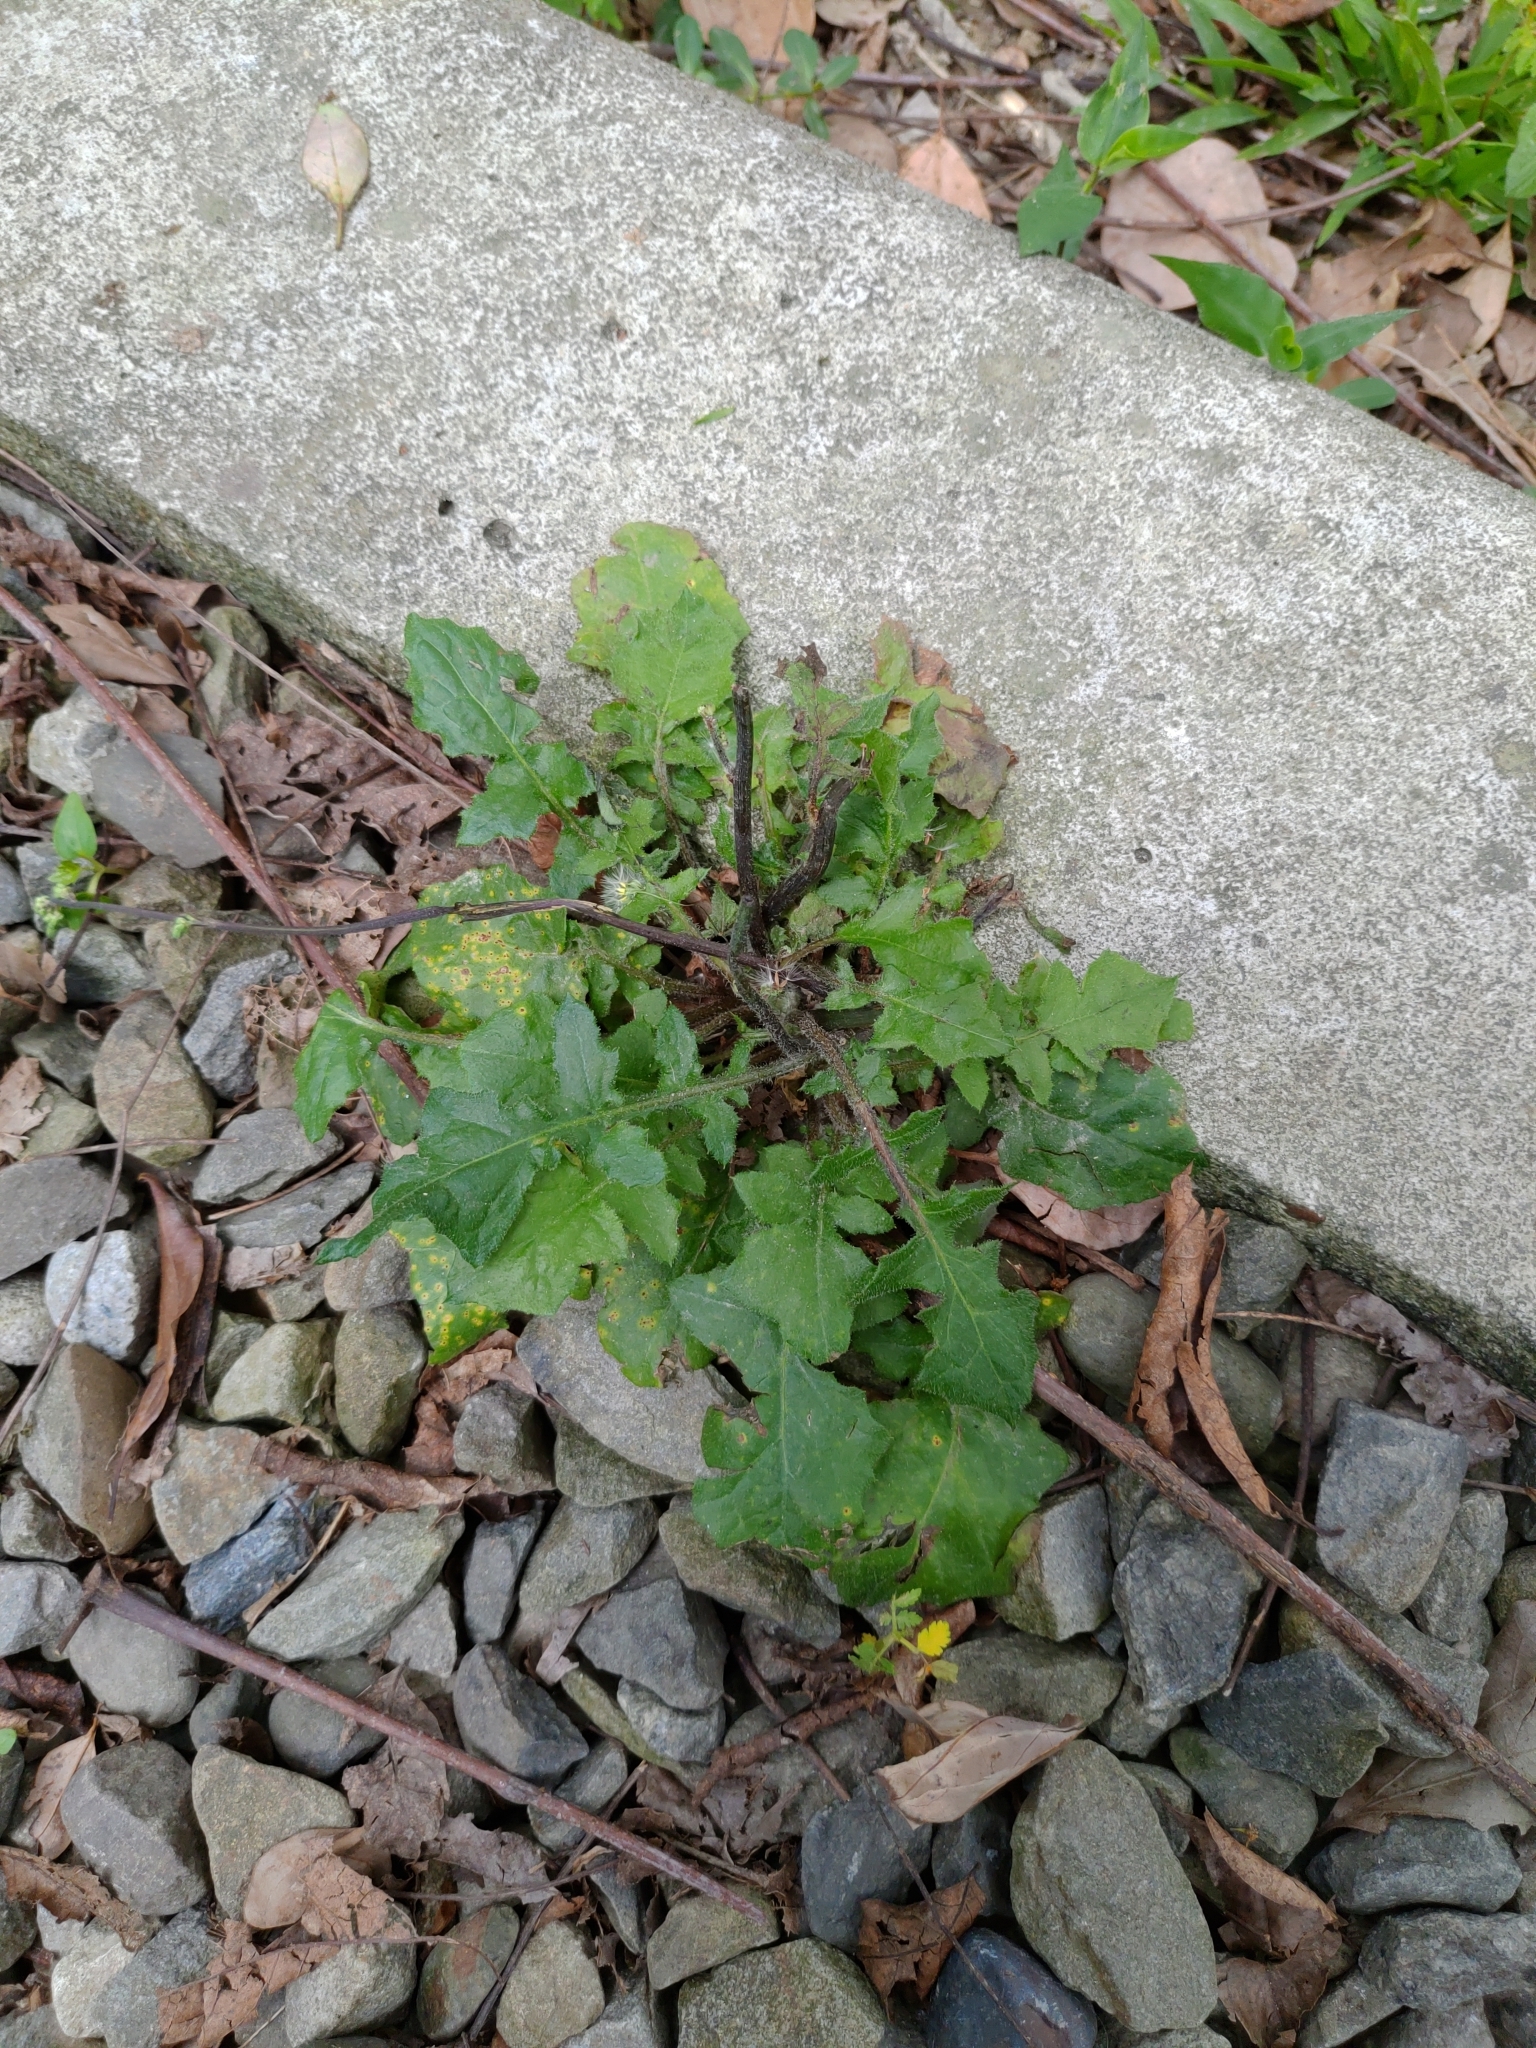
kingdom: Plantae
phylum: Tracheophyta
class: Magnoliopsida
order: Asterales
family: Asteraceae
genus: Youngia
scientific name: Youngia japonica
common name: Oriental false hawksbeard
